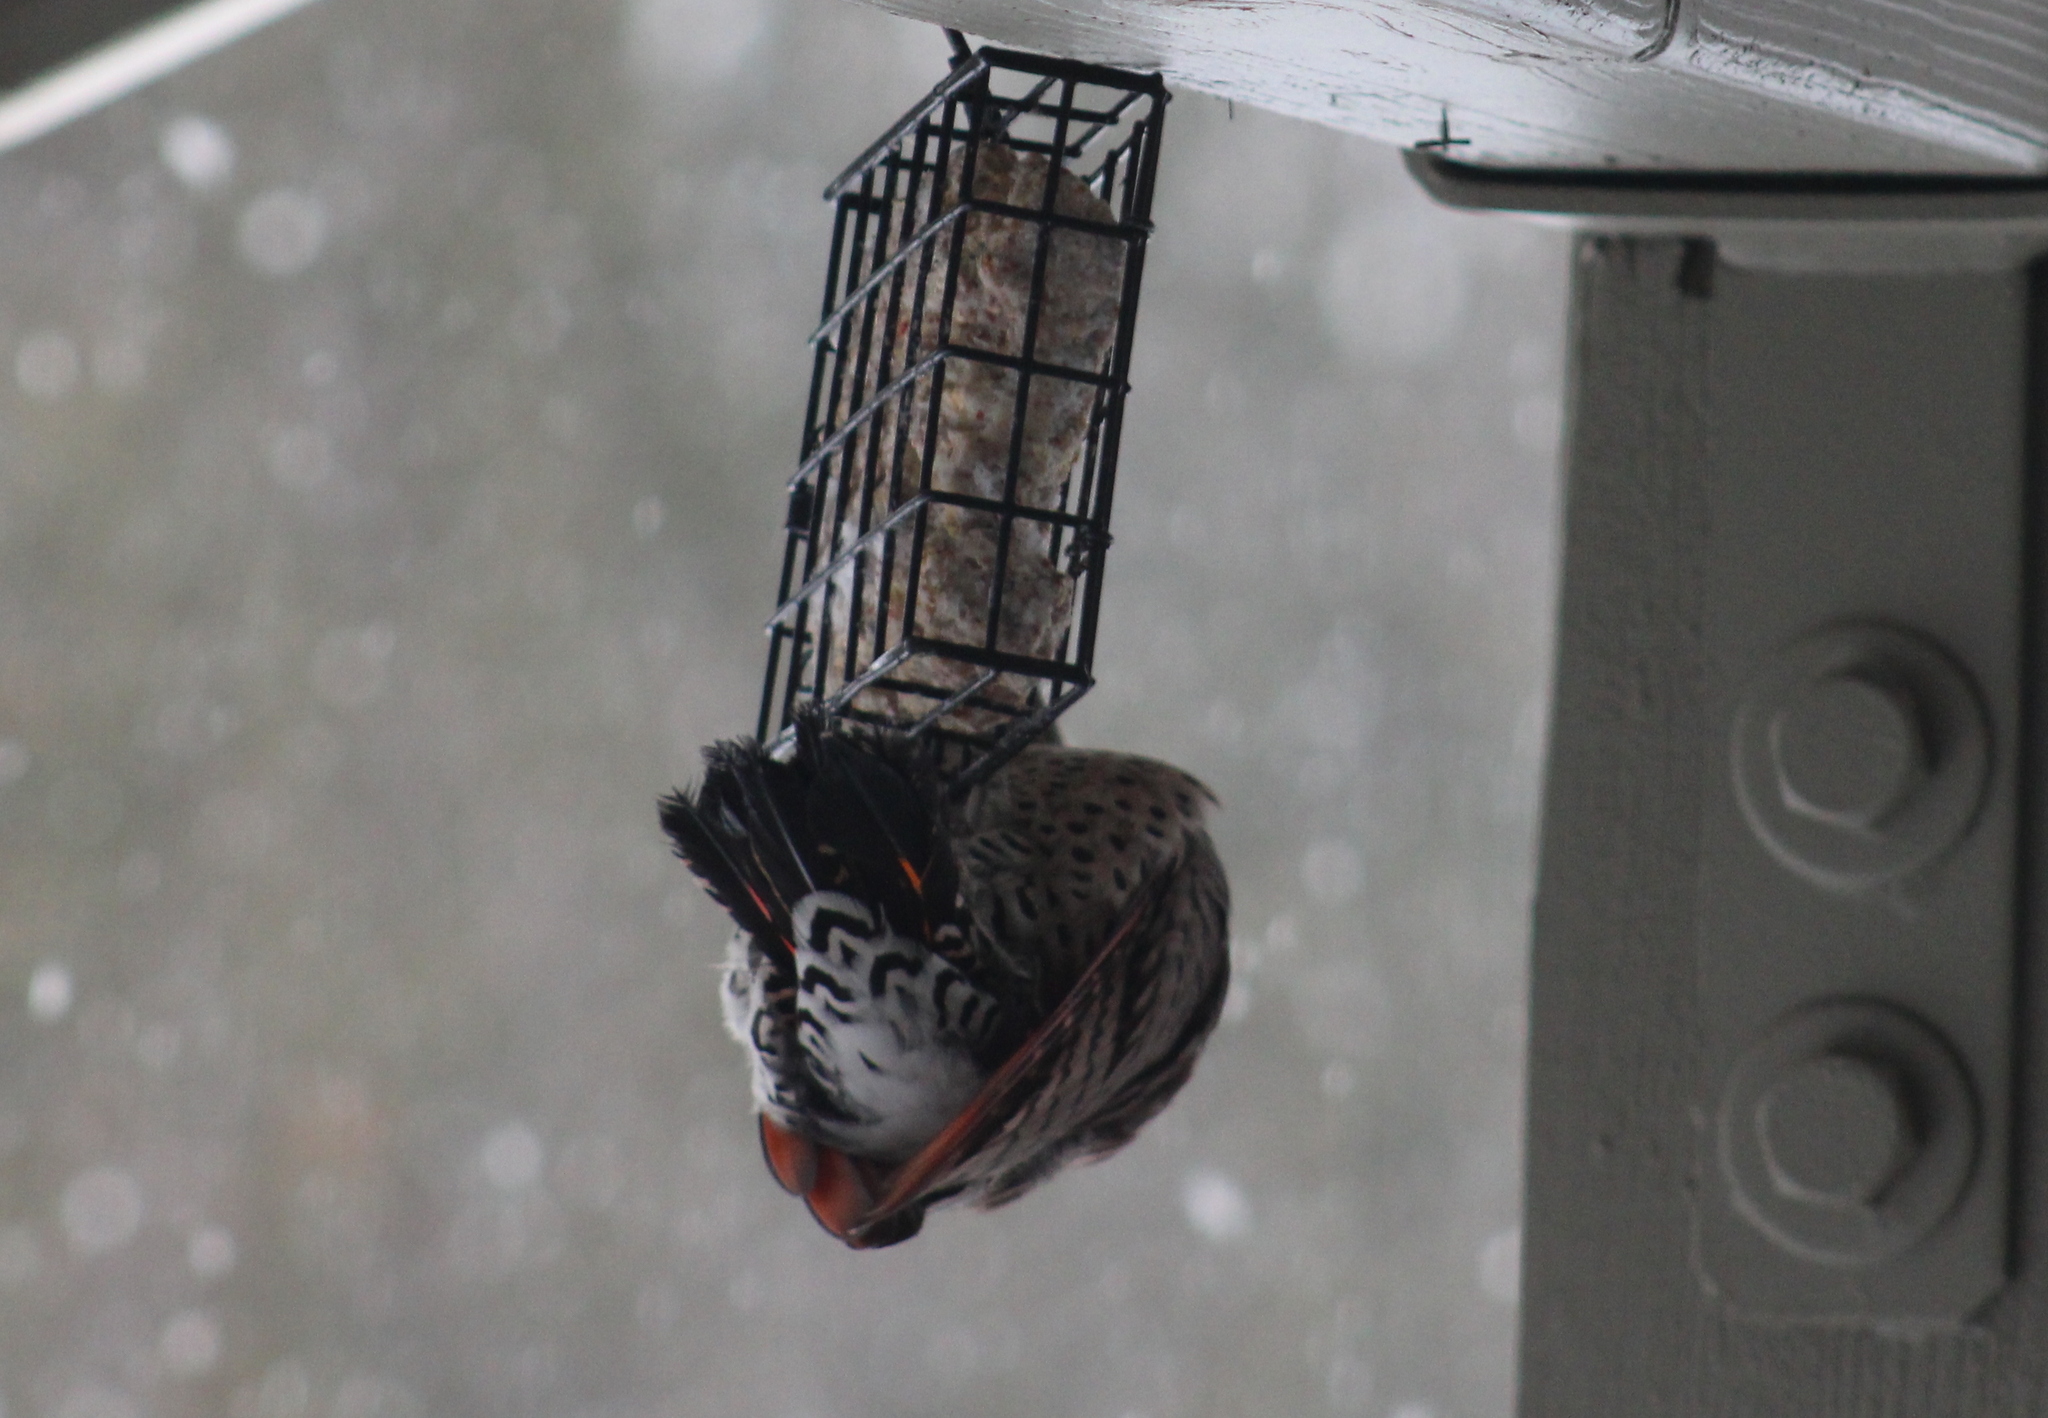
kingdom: Animalia
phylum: Chordata
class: Aves
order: Piciformes
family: Picidae
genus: Colaptes
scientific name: Colaptes auratus
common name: Northern flicker
